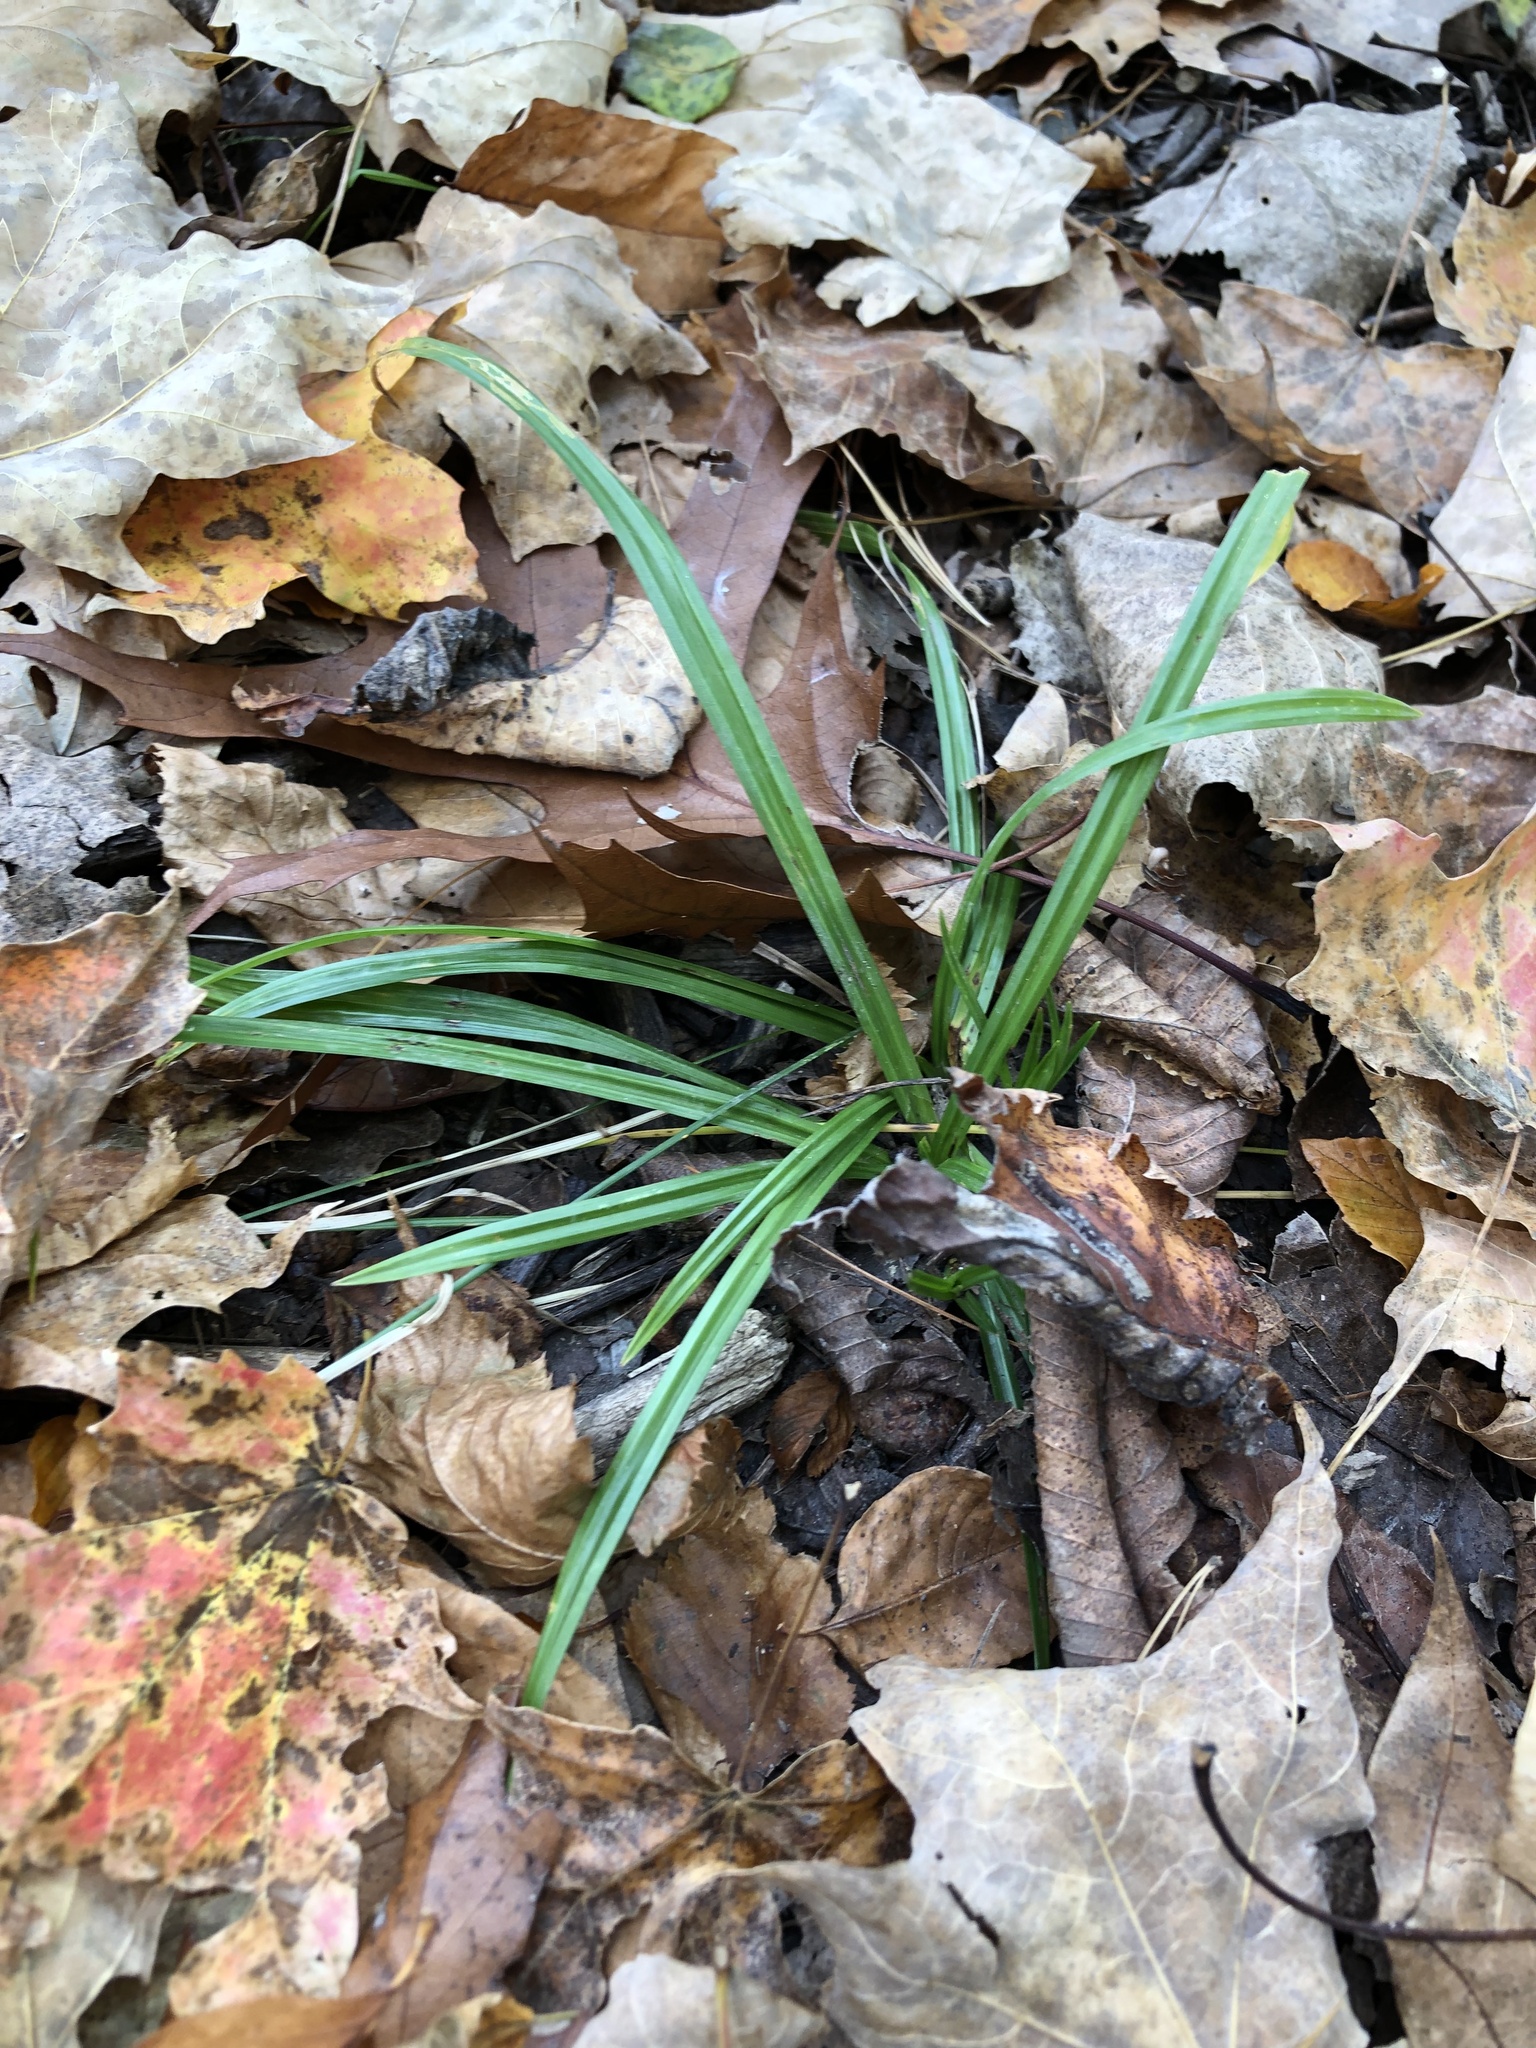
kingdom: Plantae
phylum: Tracheophyta
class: Liliopsida
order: Poales
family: Cyperaceae
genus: Carex
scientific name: Carex
